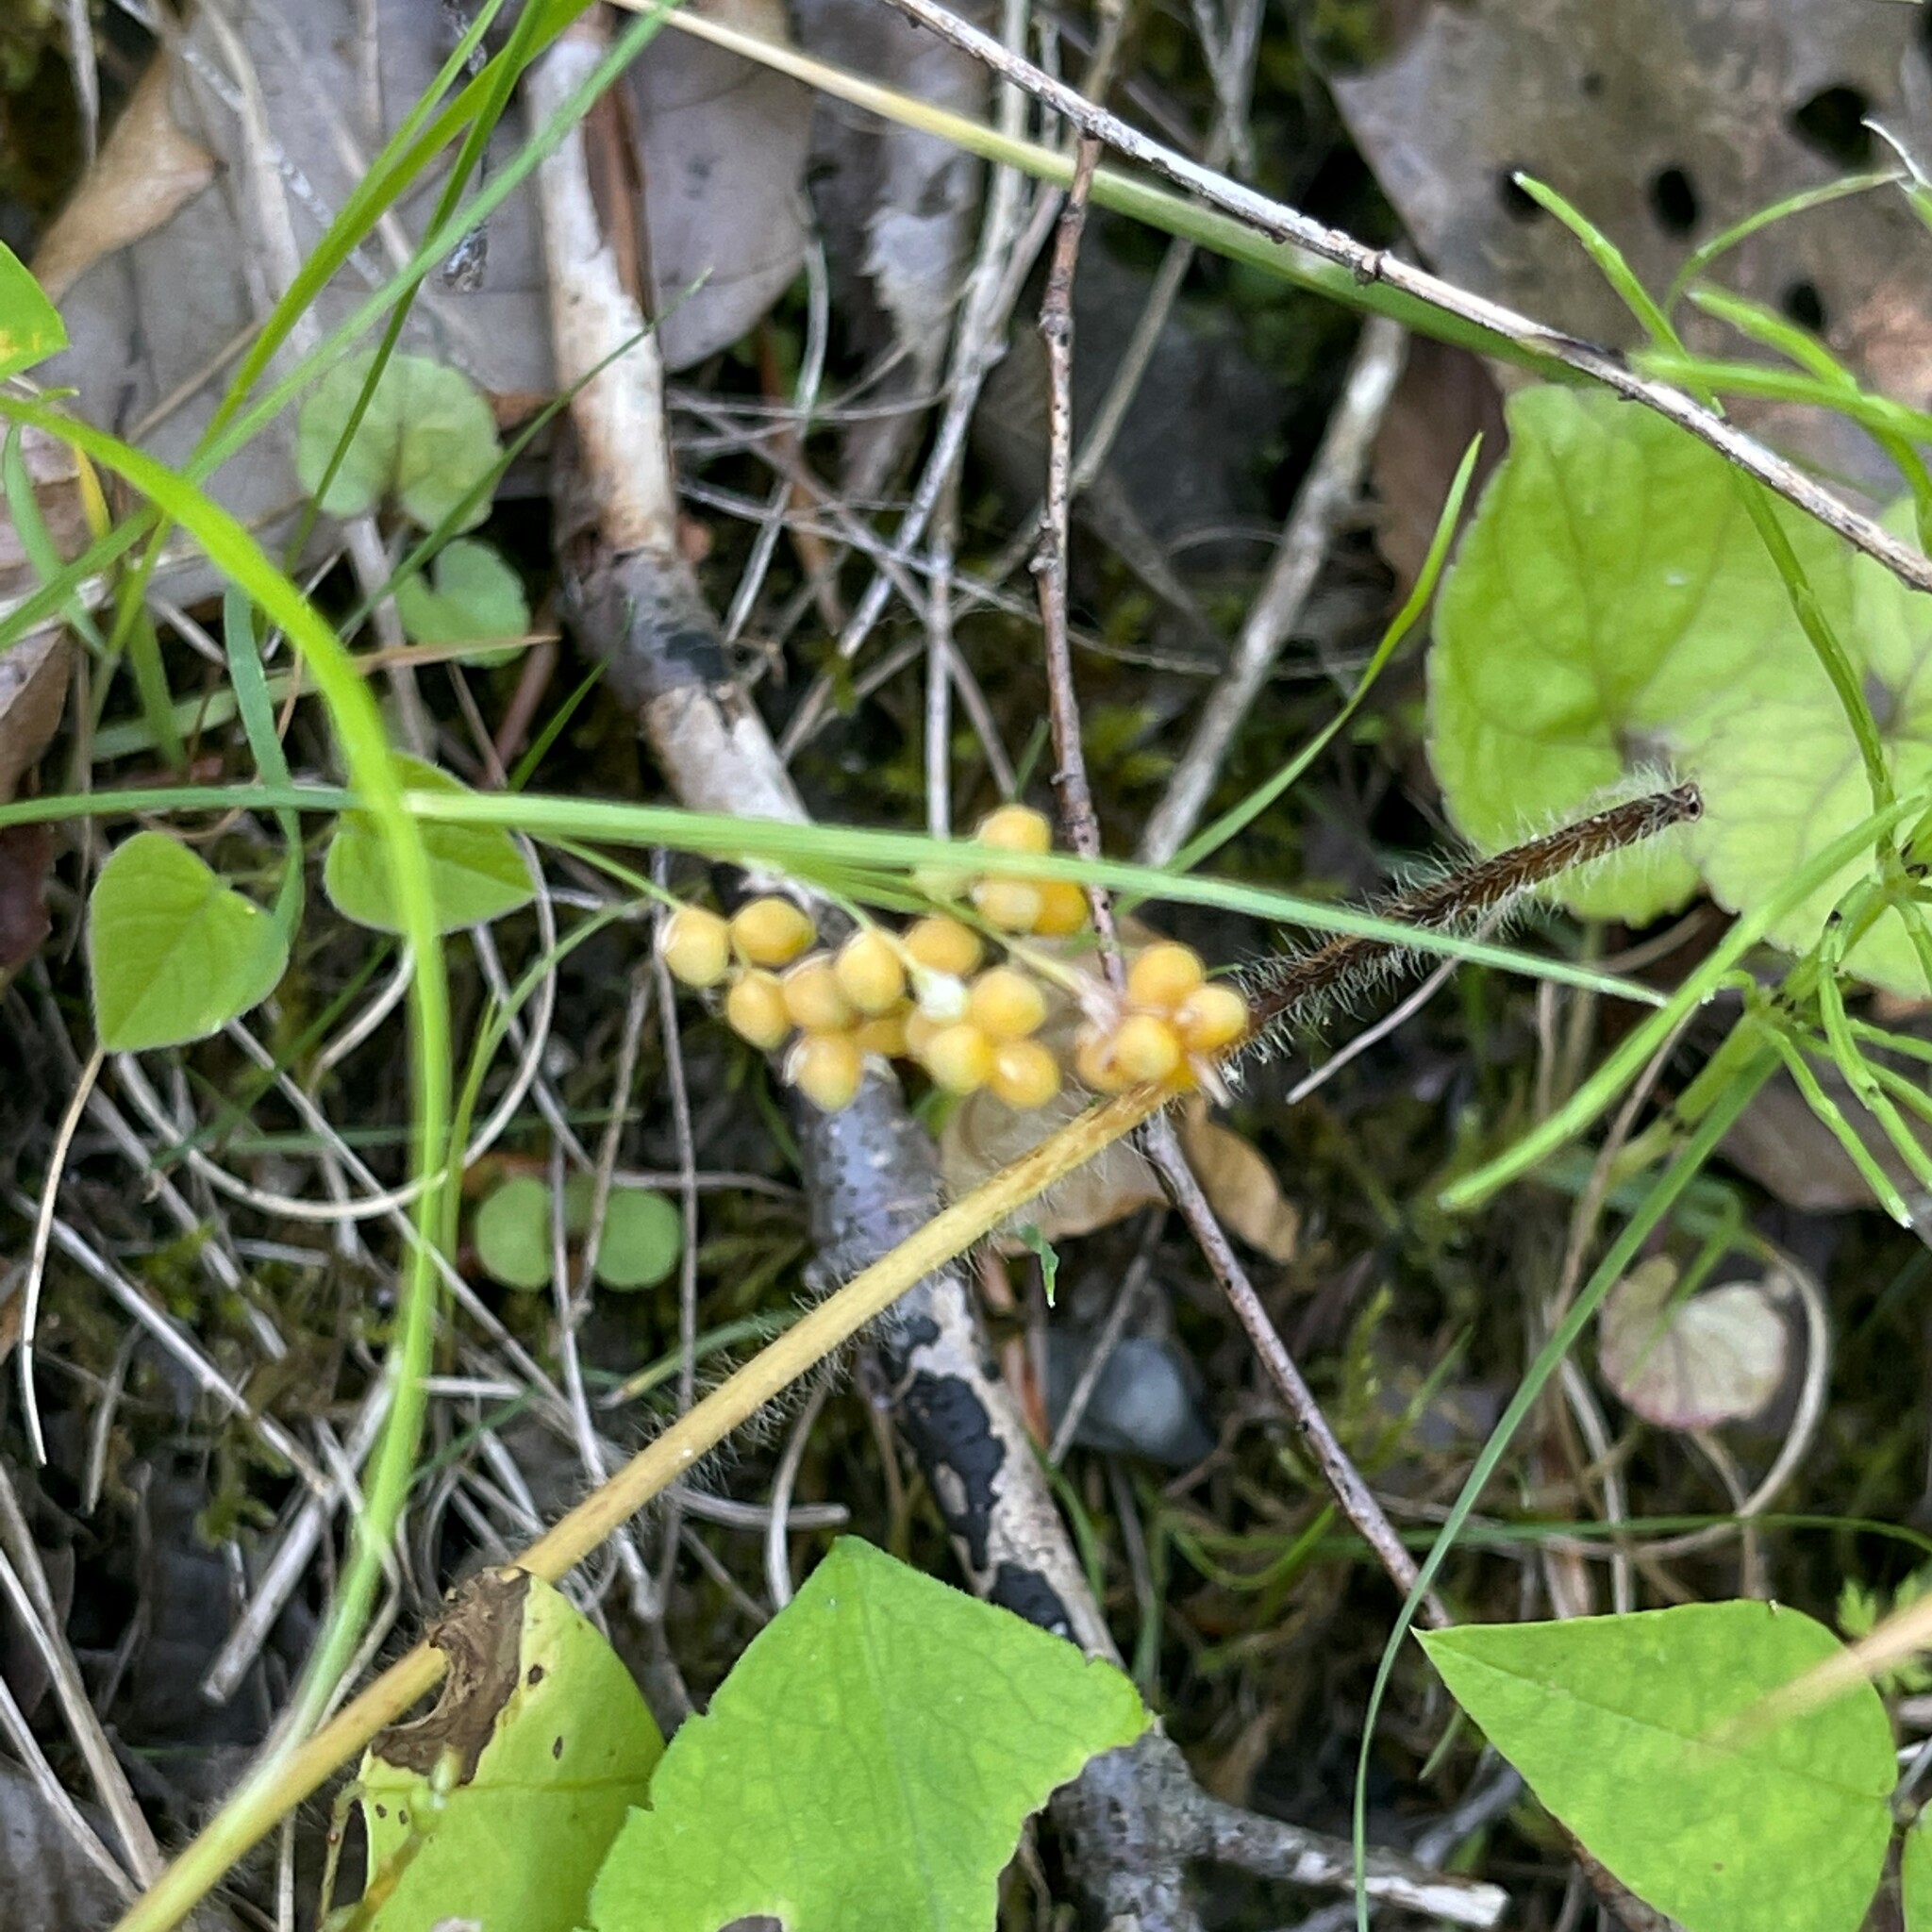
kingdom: Plantae
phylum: Tracheophyta
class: Liliopsida
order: Poales
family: Cyperaceae
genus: Carex
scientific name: Carex aurea
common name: Golden sedge
